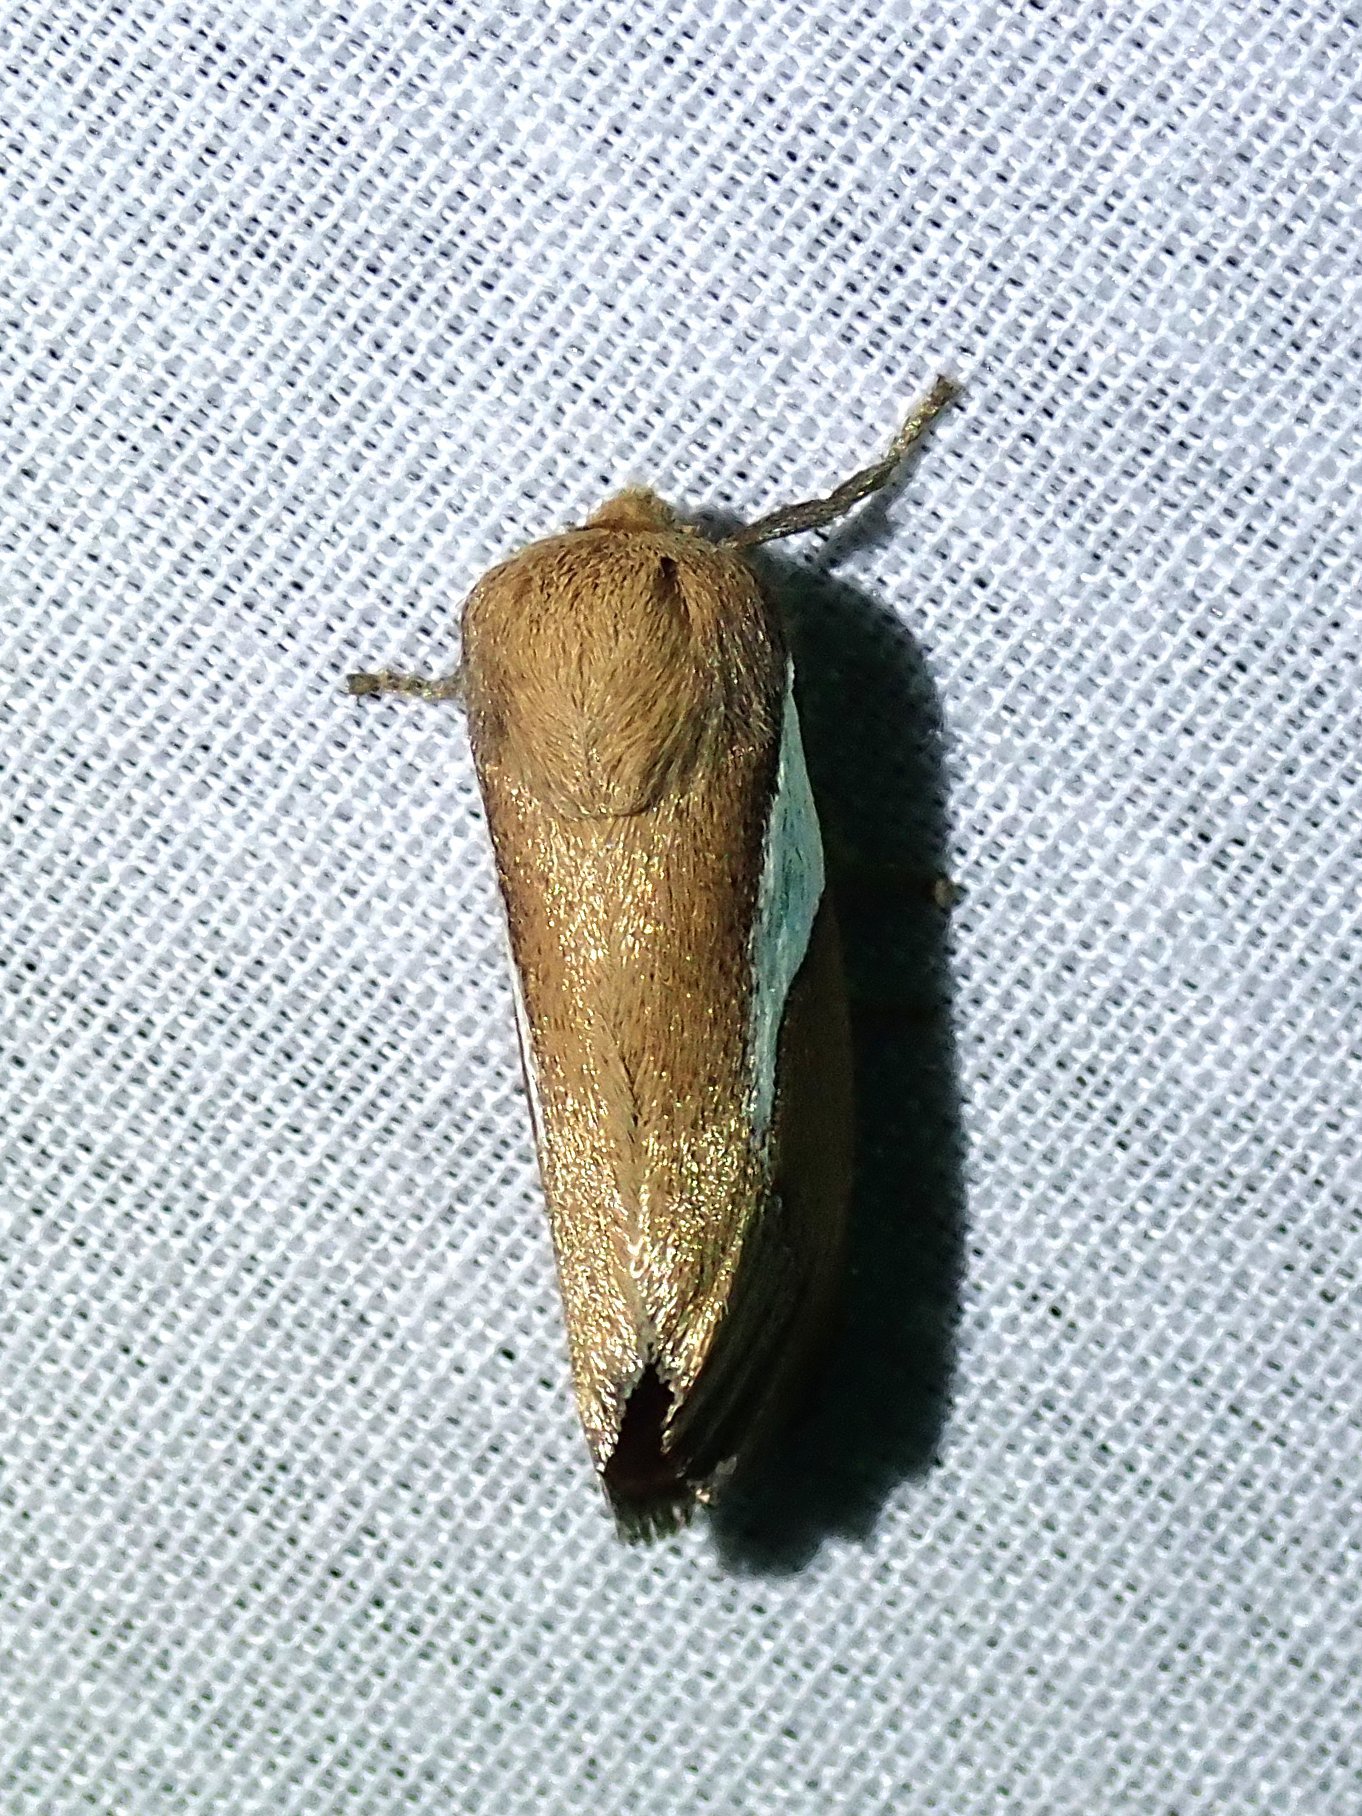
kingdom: Animalia
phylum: Arthropoda
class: Insecta
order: Lepidoptera
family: Limacodidae
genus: Prolimacodes
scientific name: Prolimacodes trigona
